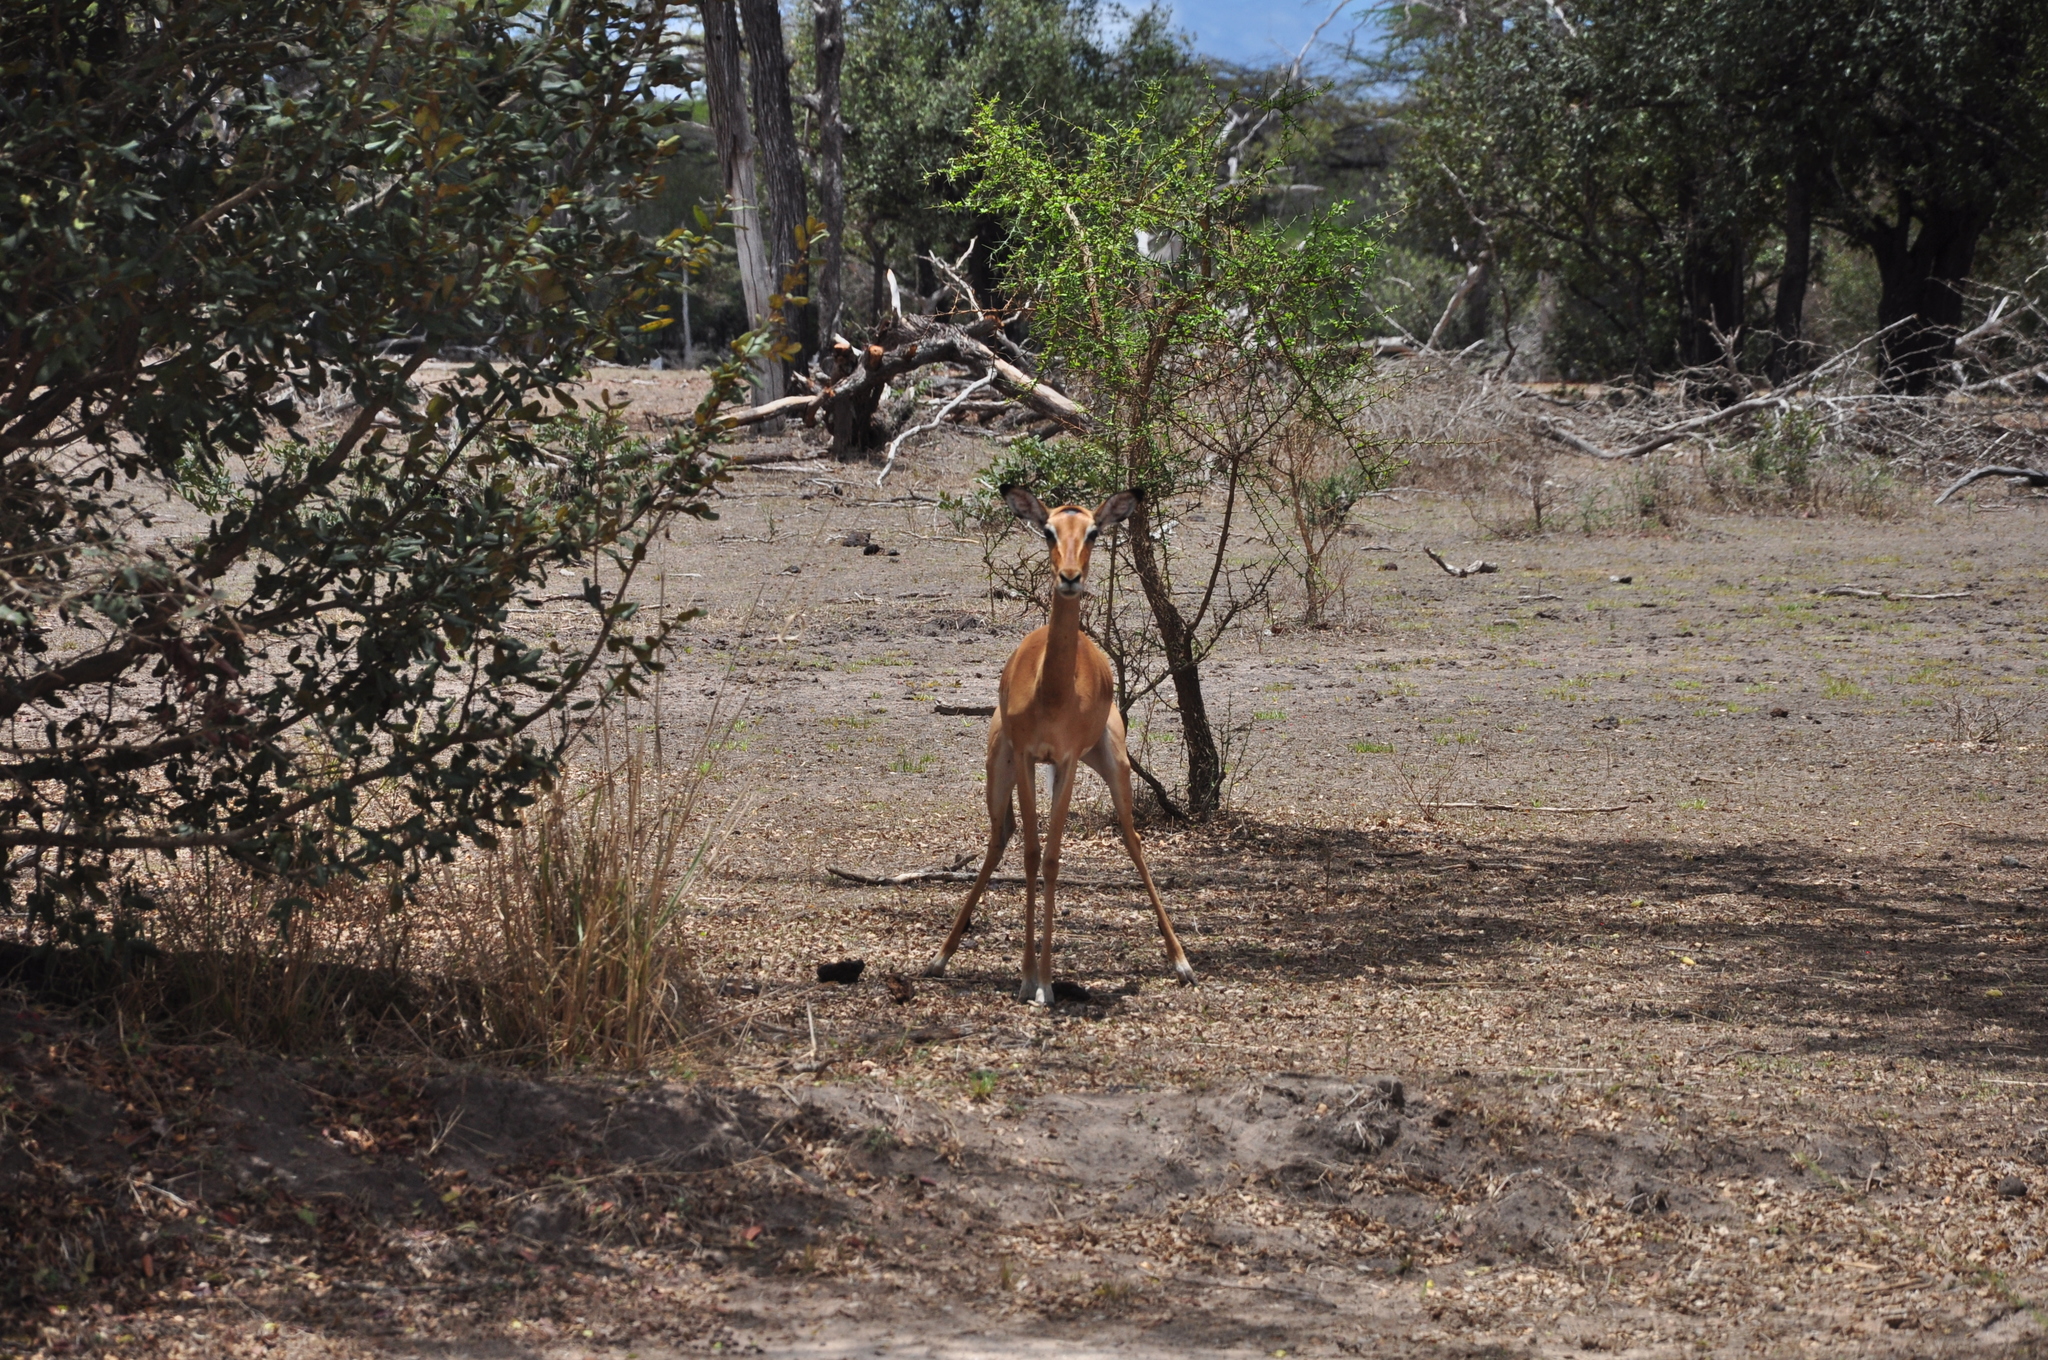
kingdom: Animalia
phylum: Chordata
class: Mammalia
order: Artiodactyla
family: Bovidae
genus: Aepyceros
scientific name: Aepyceros melampus
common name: Impala
